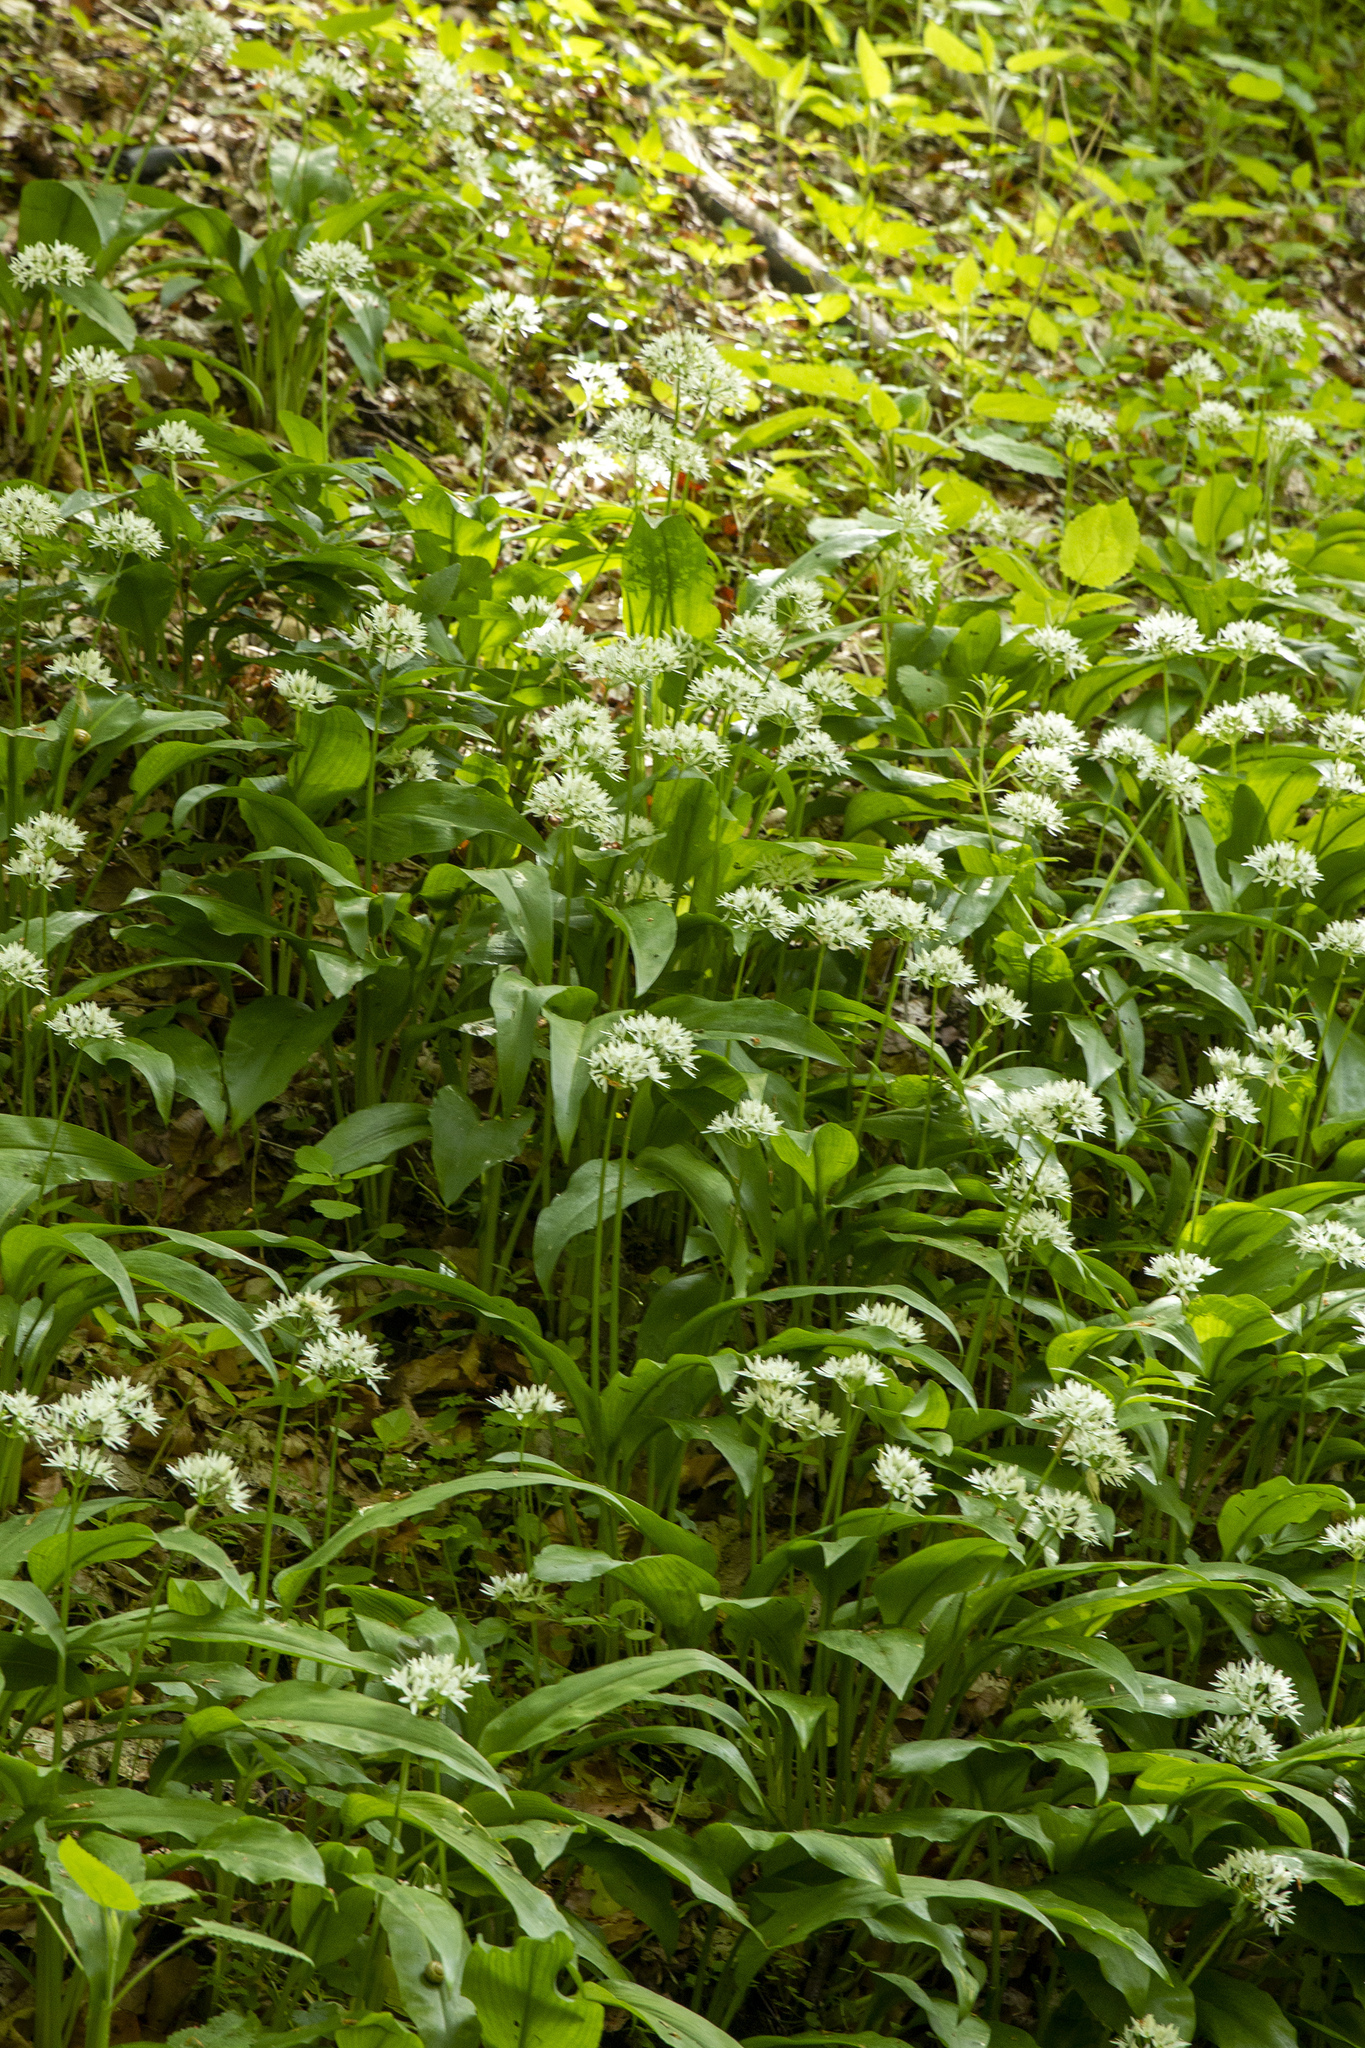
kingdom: Plantae
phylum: Tracheophyta
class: Liliopsida
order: Asparagales
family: Amaryllidaceae
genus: Allium
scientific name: Allium ursinum
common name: Ramsons
